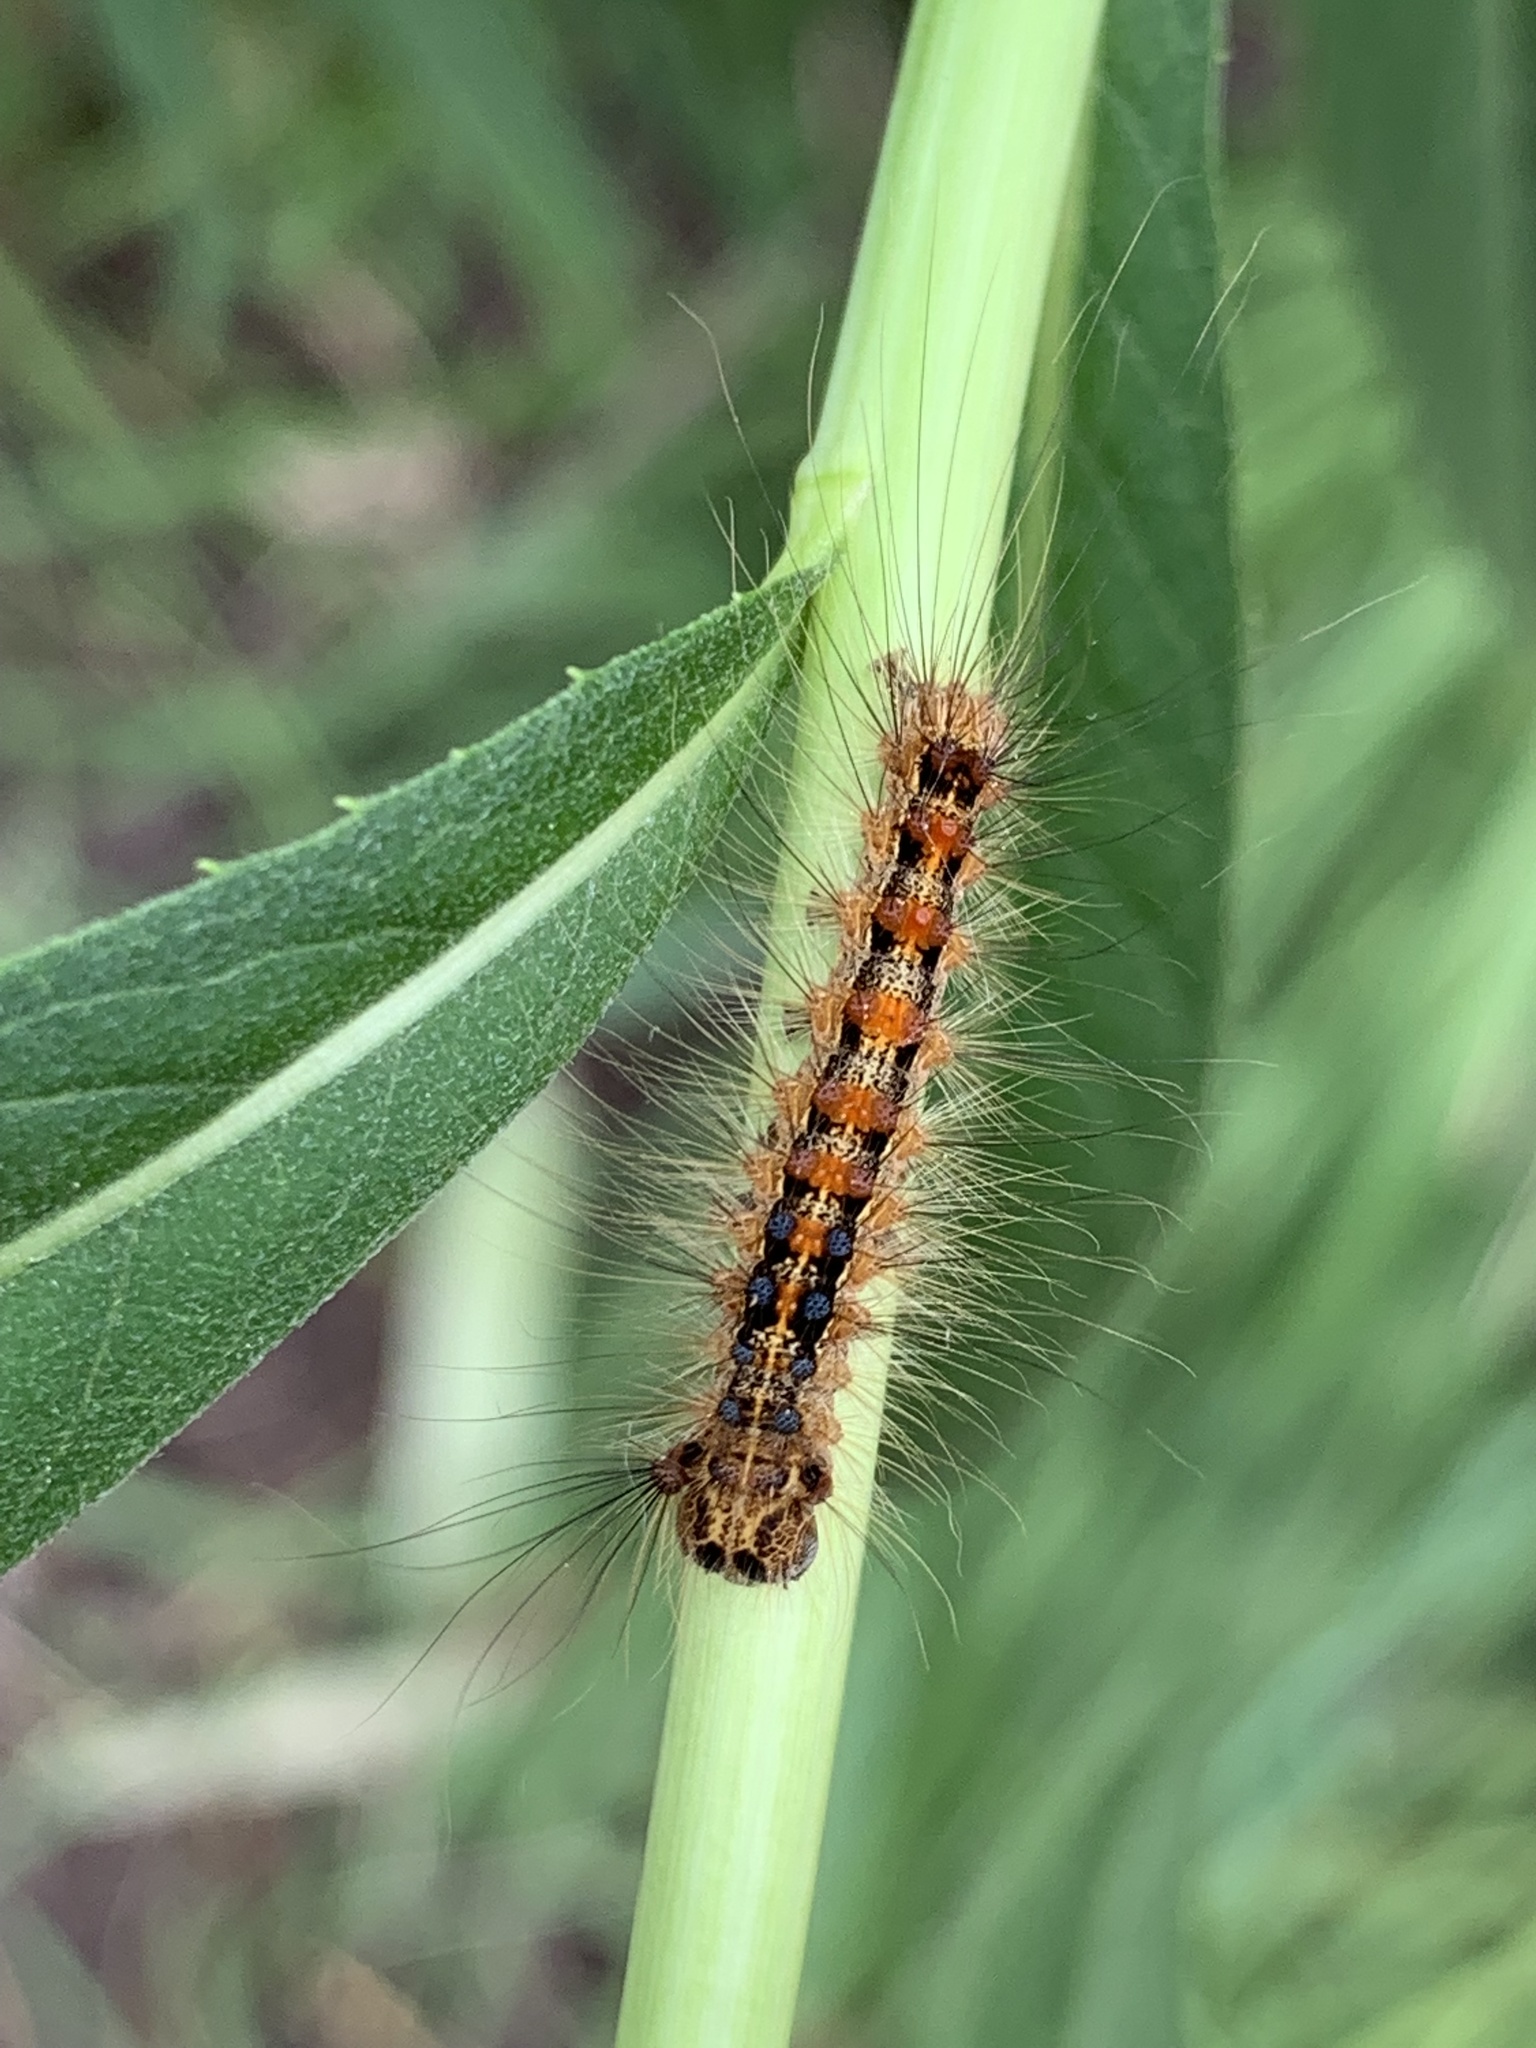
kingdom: Animalia
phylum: Arthropoda
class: Insecta
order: Lepidoptera
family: Erebidae
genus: Lymantria
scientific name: Lymantria dispar
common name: Gypsy moth
